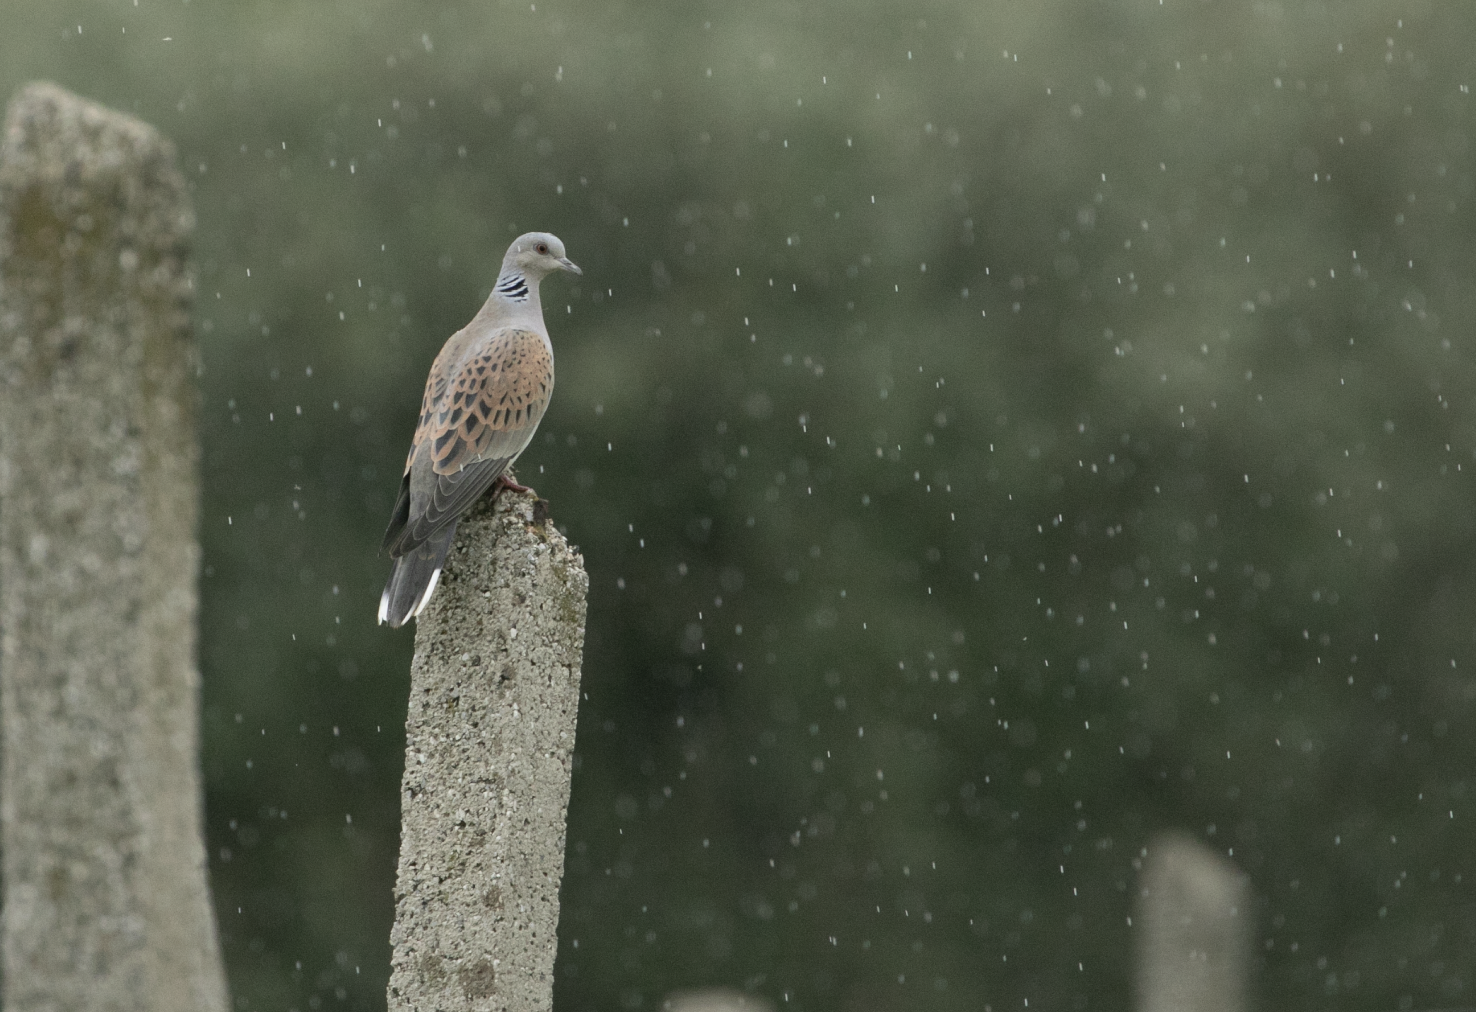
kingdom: Animalia
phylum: Chordata
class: Aves
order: Columbiformes
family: Columbidae
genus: Streptopelia
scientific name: Streptopelia turtur
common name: European turtle dove
